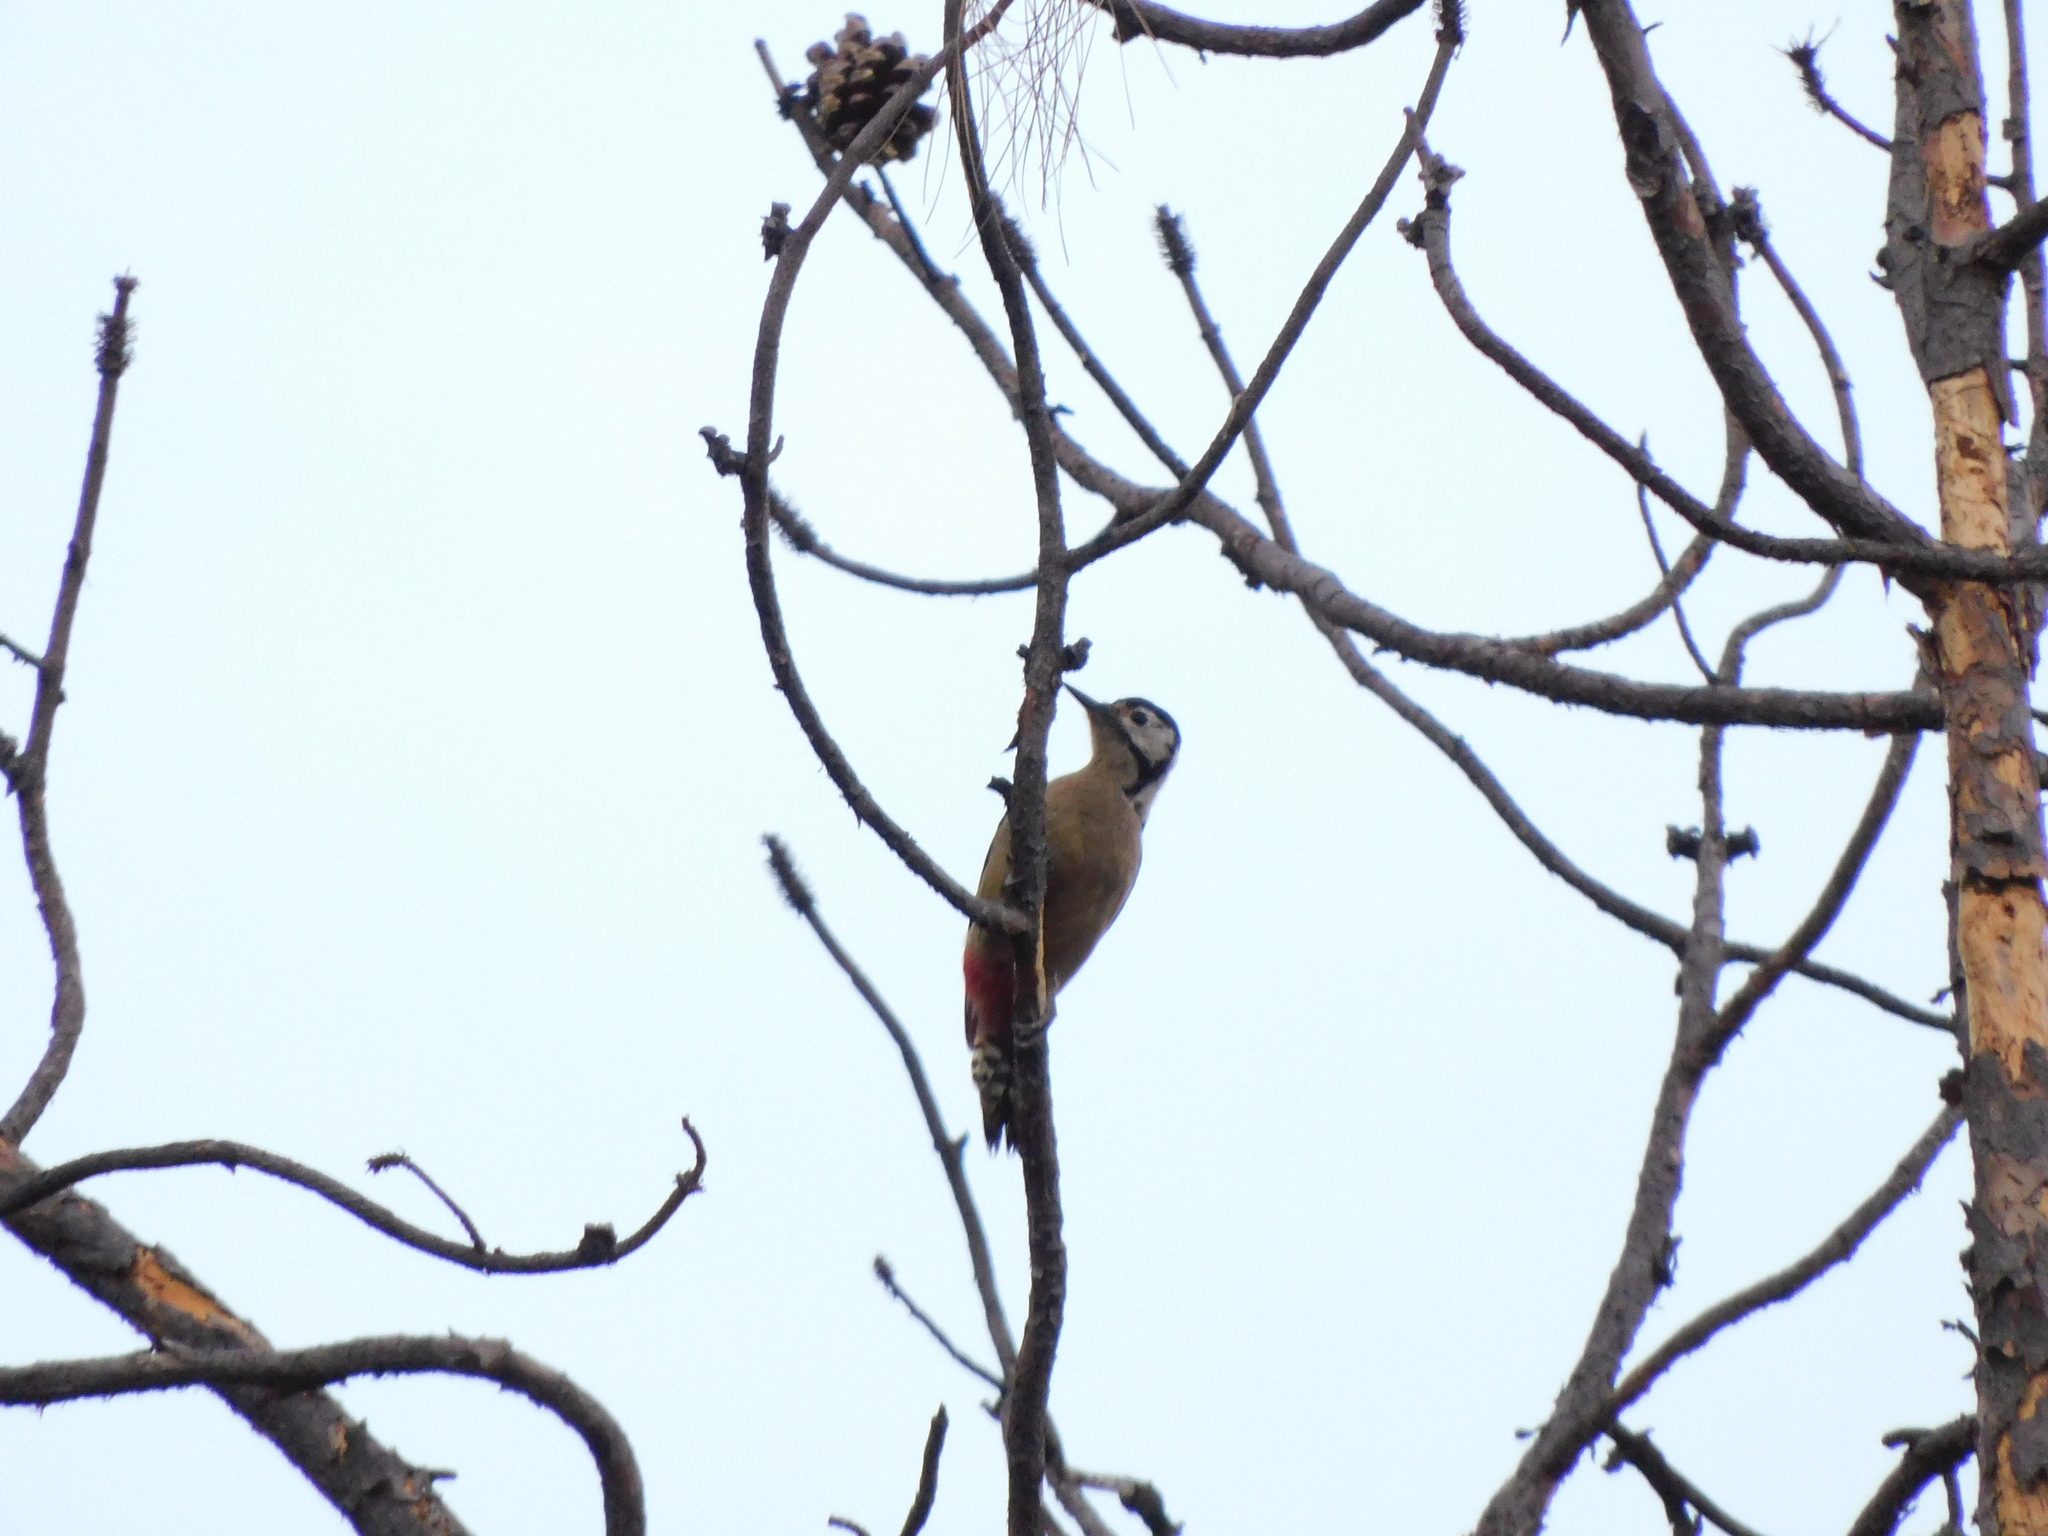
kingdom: Animalia
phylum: Chordata
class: Aves
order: Piciformes
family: Picidae
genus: Dendrocopos
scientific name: Dendrocopos himalayensis
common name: Himalayan woodpecker
